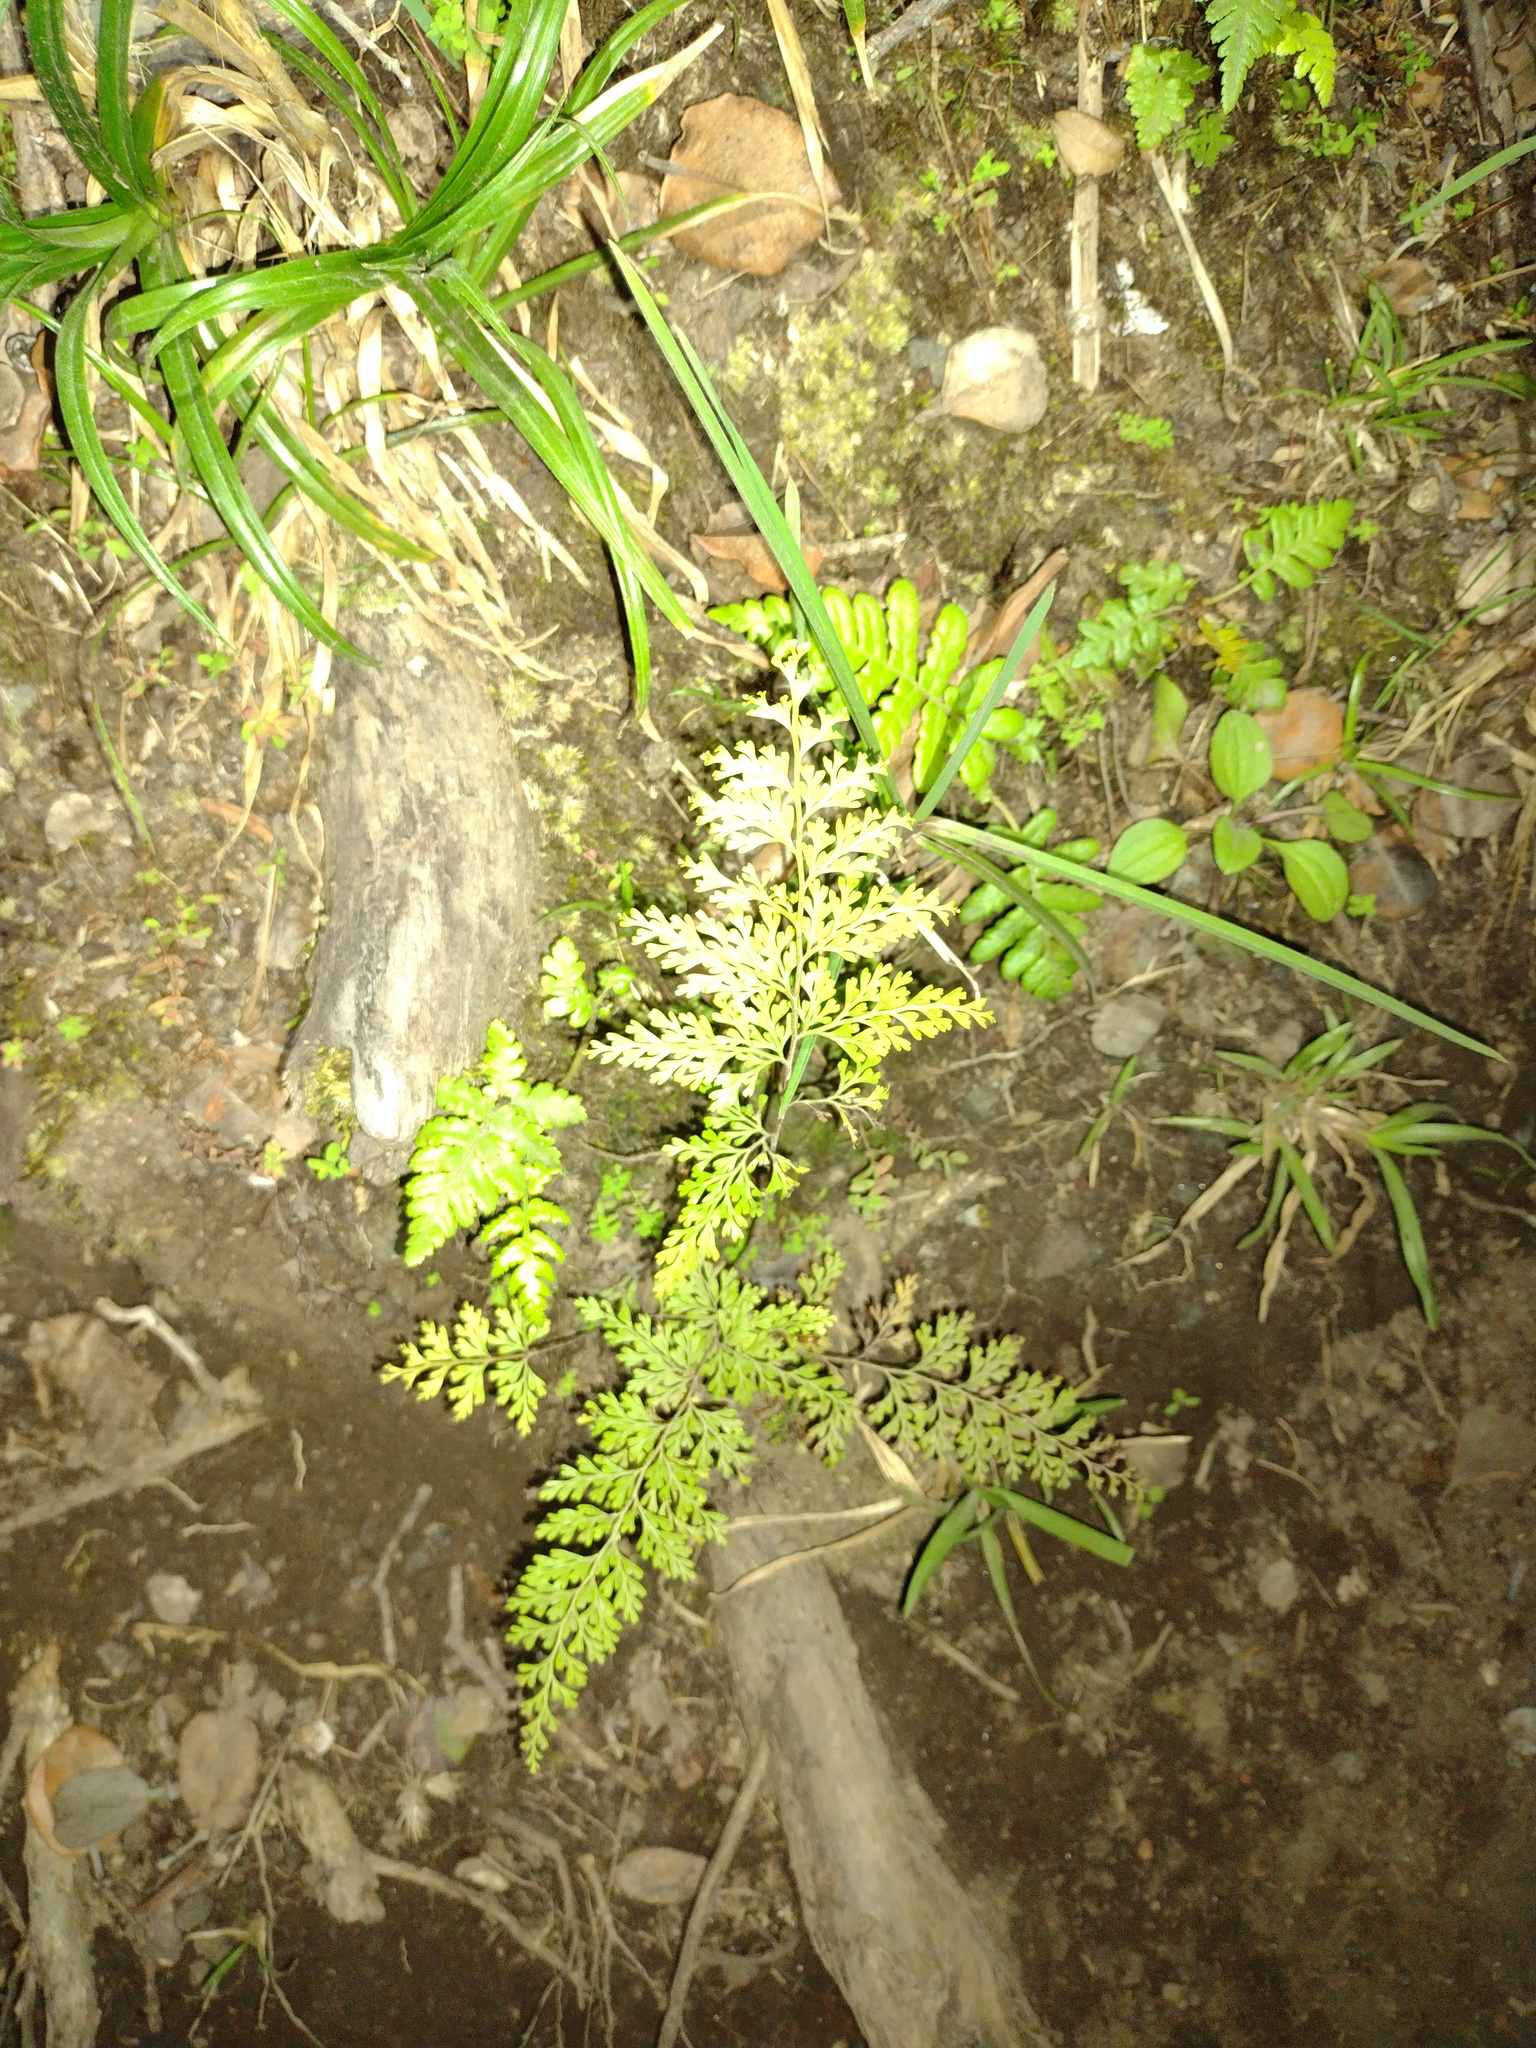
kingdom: Plantae
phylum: Tracheophyta
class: Polypodiopsida
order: Polypodiales
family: Lindsaeaceae
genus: Odontosoria
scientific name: Odontosoria chinensis
